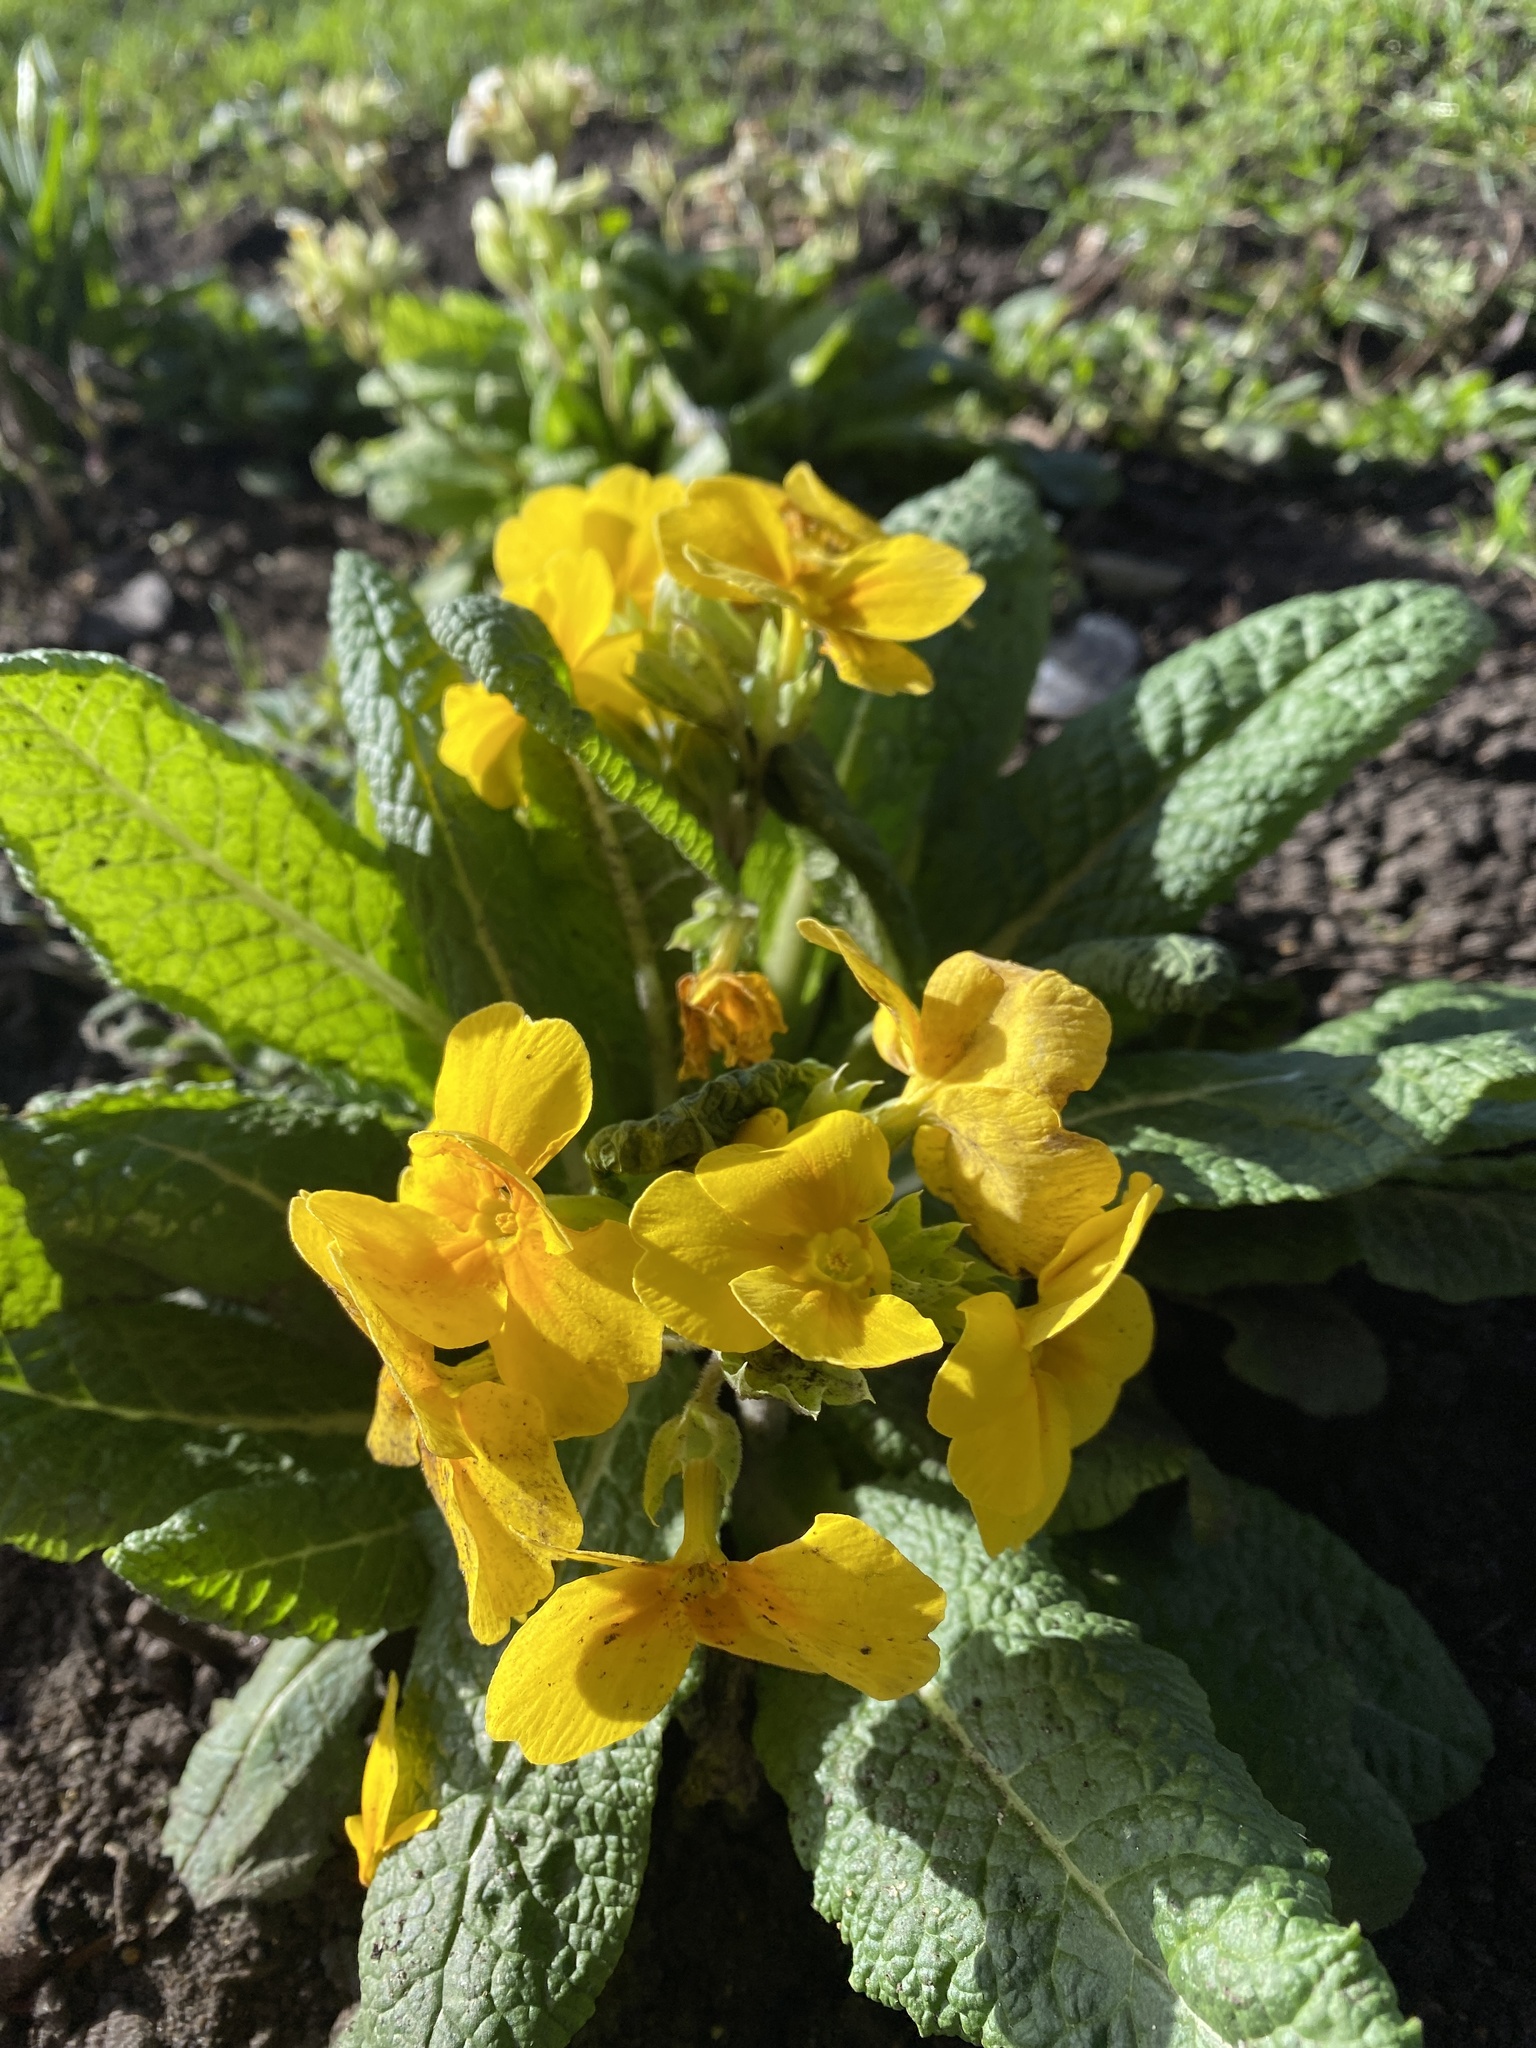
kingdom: Plantae
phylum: Tracheophyta
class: Magnoliopsida
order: Ericales
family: Primulaceae
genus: Primula
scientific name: Primula polyantha
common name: False oxlip
